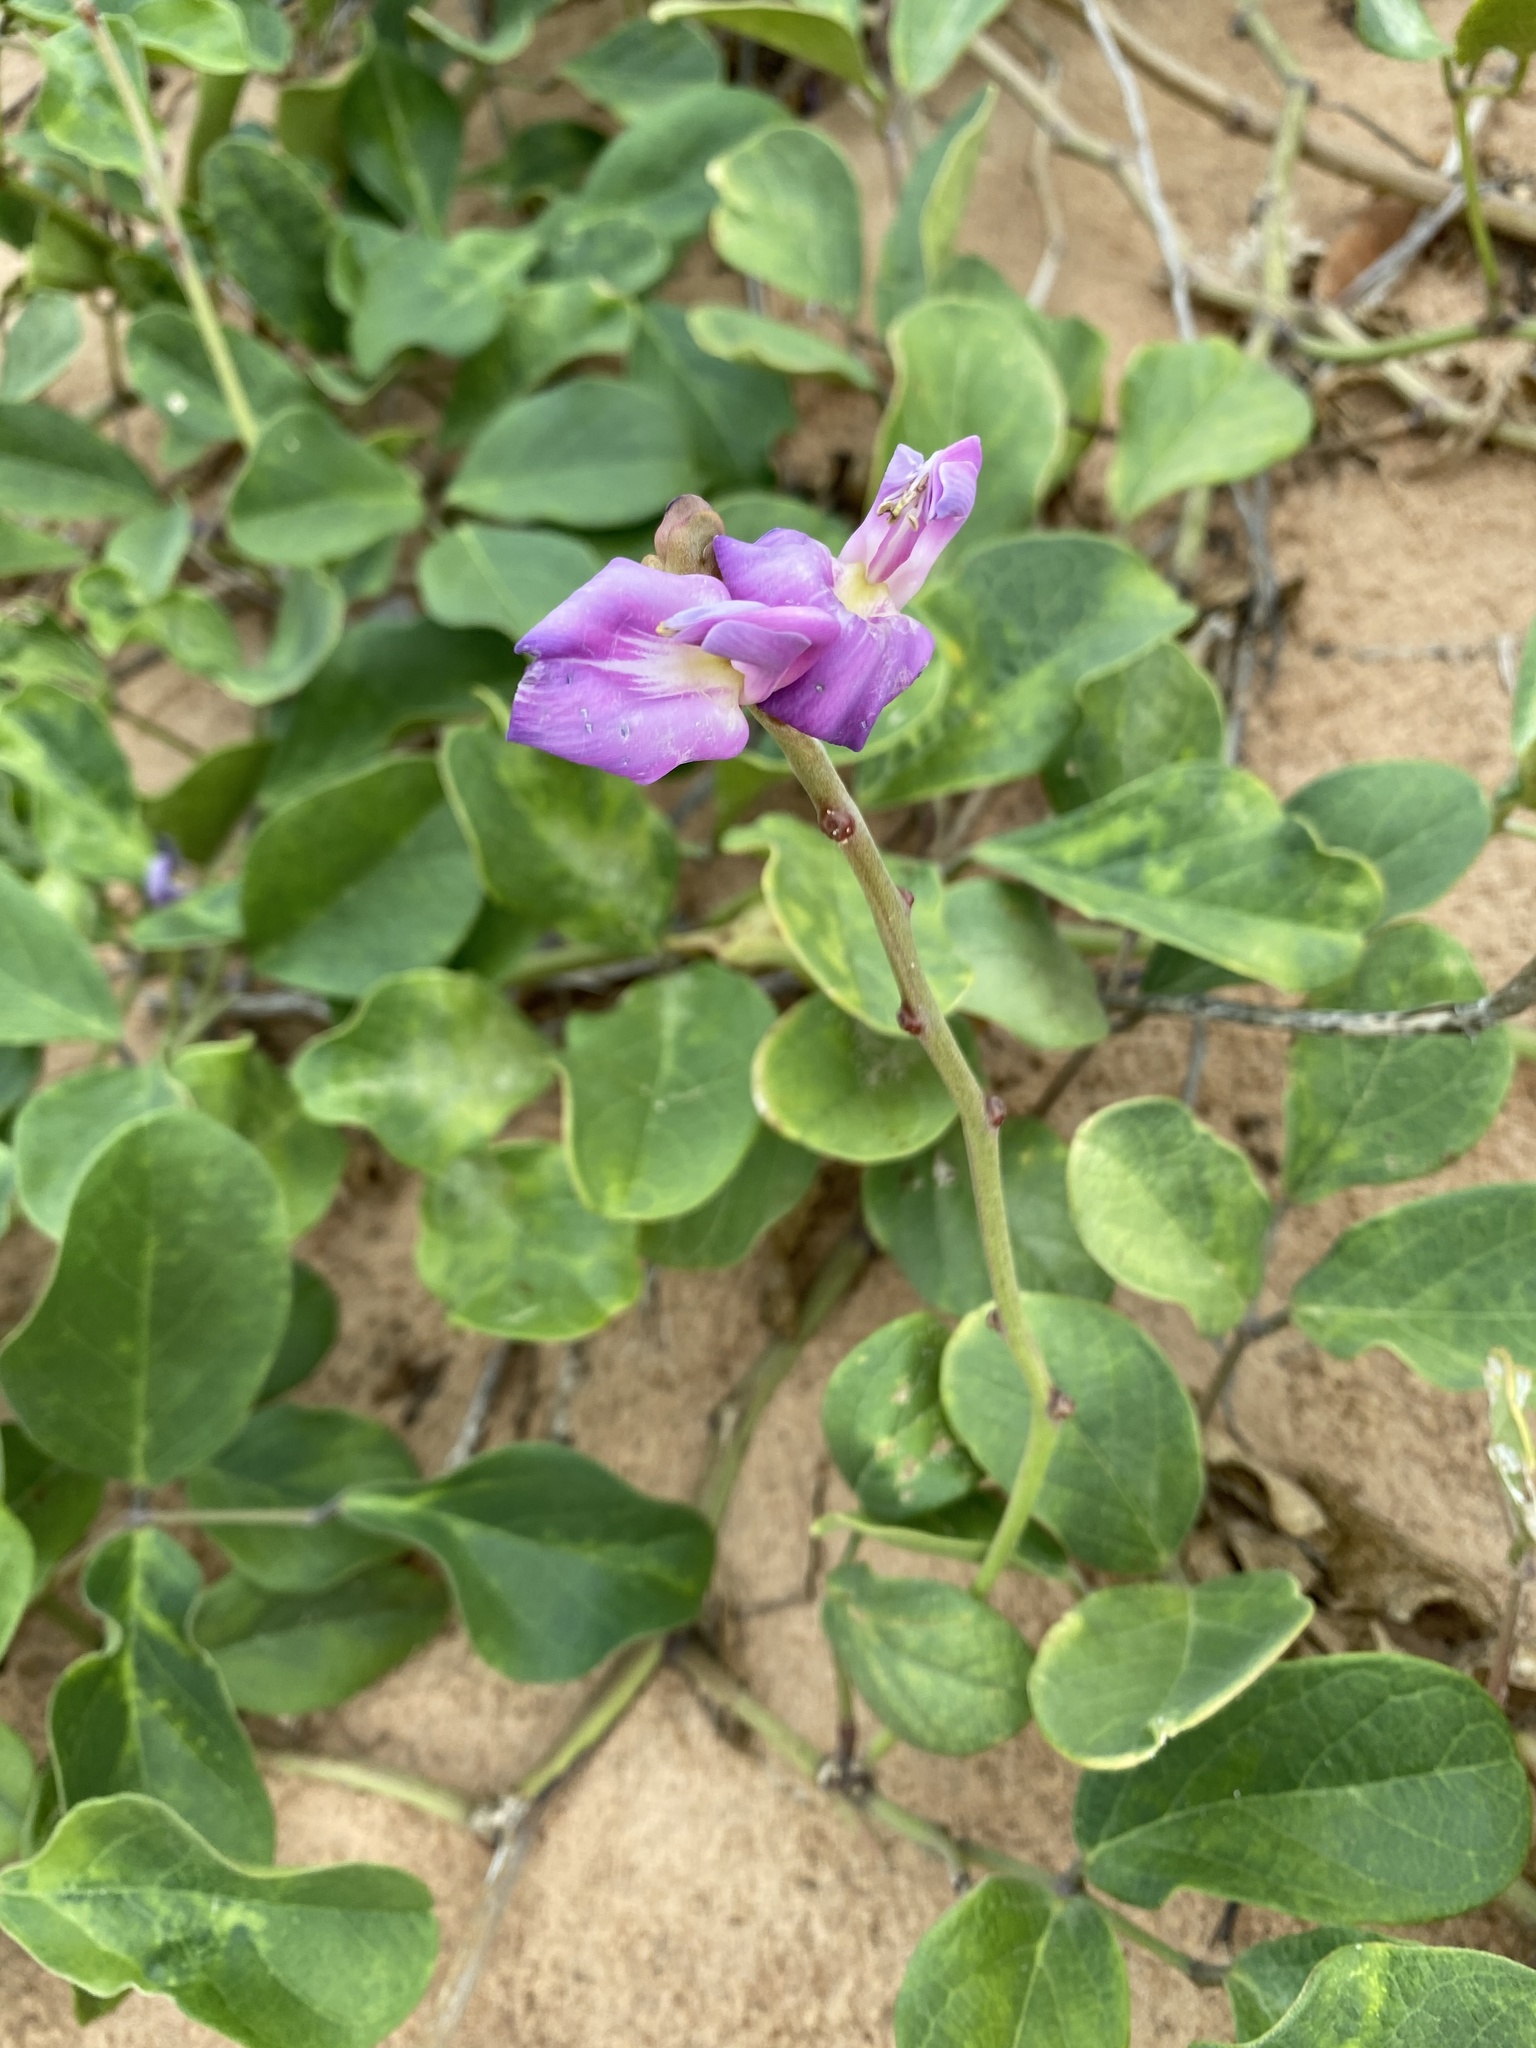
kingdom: Plantae
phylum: Tracheophyta
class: Magnoliopsida
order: Fabales
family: Fabaceae
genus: Canavalia
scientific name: Canavalia rosea
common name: Beach-bean
